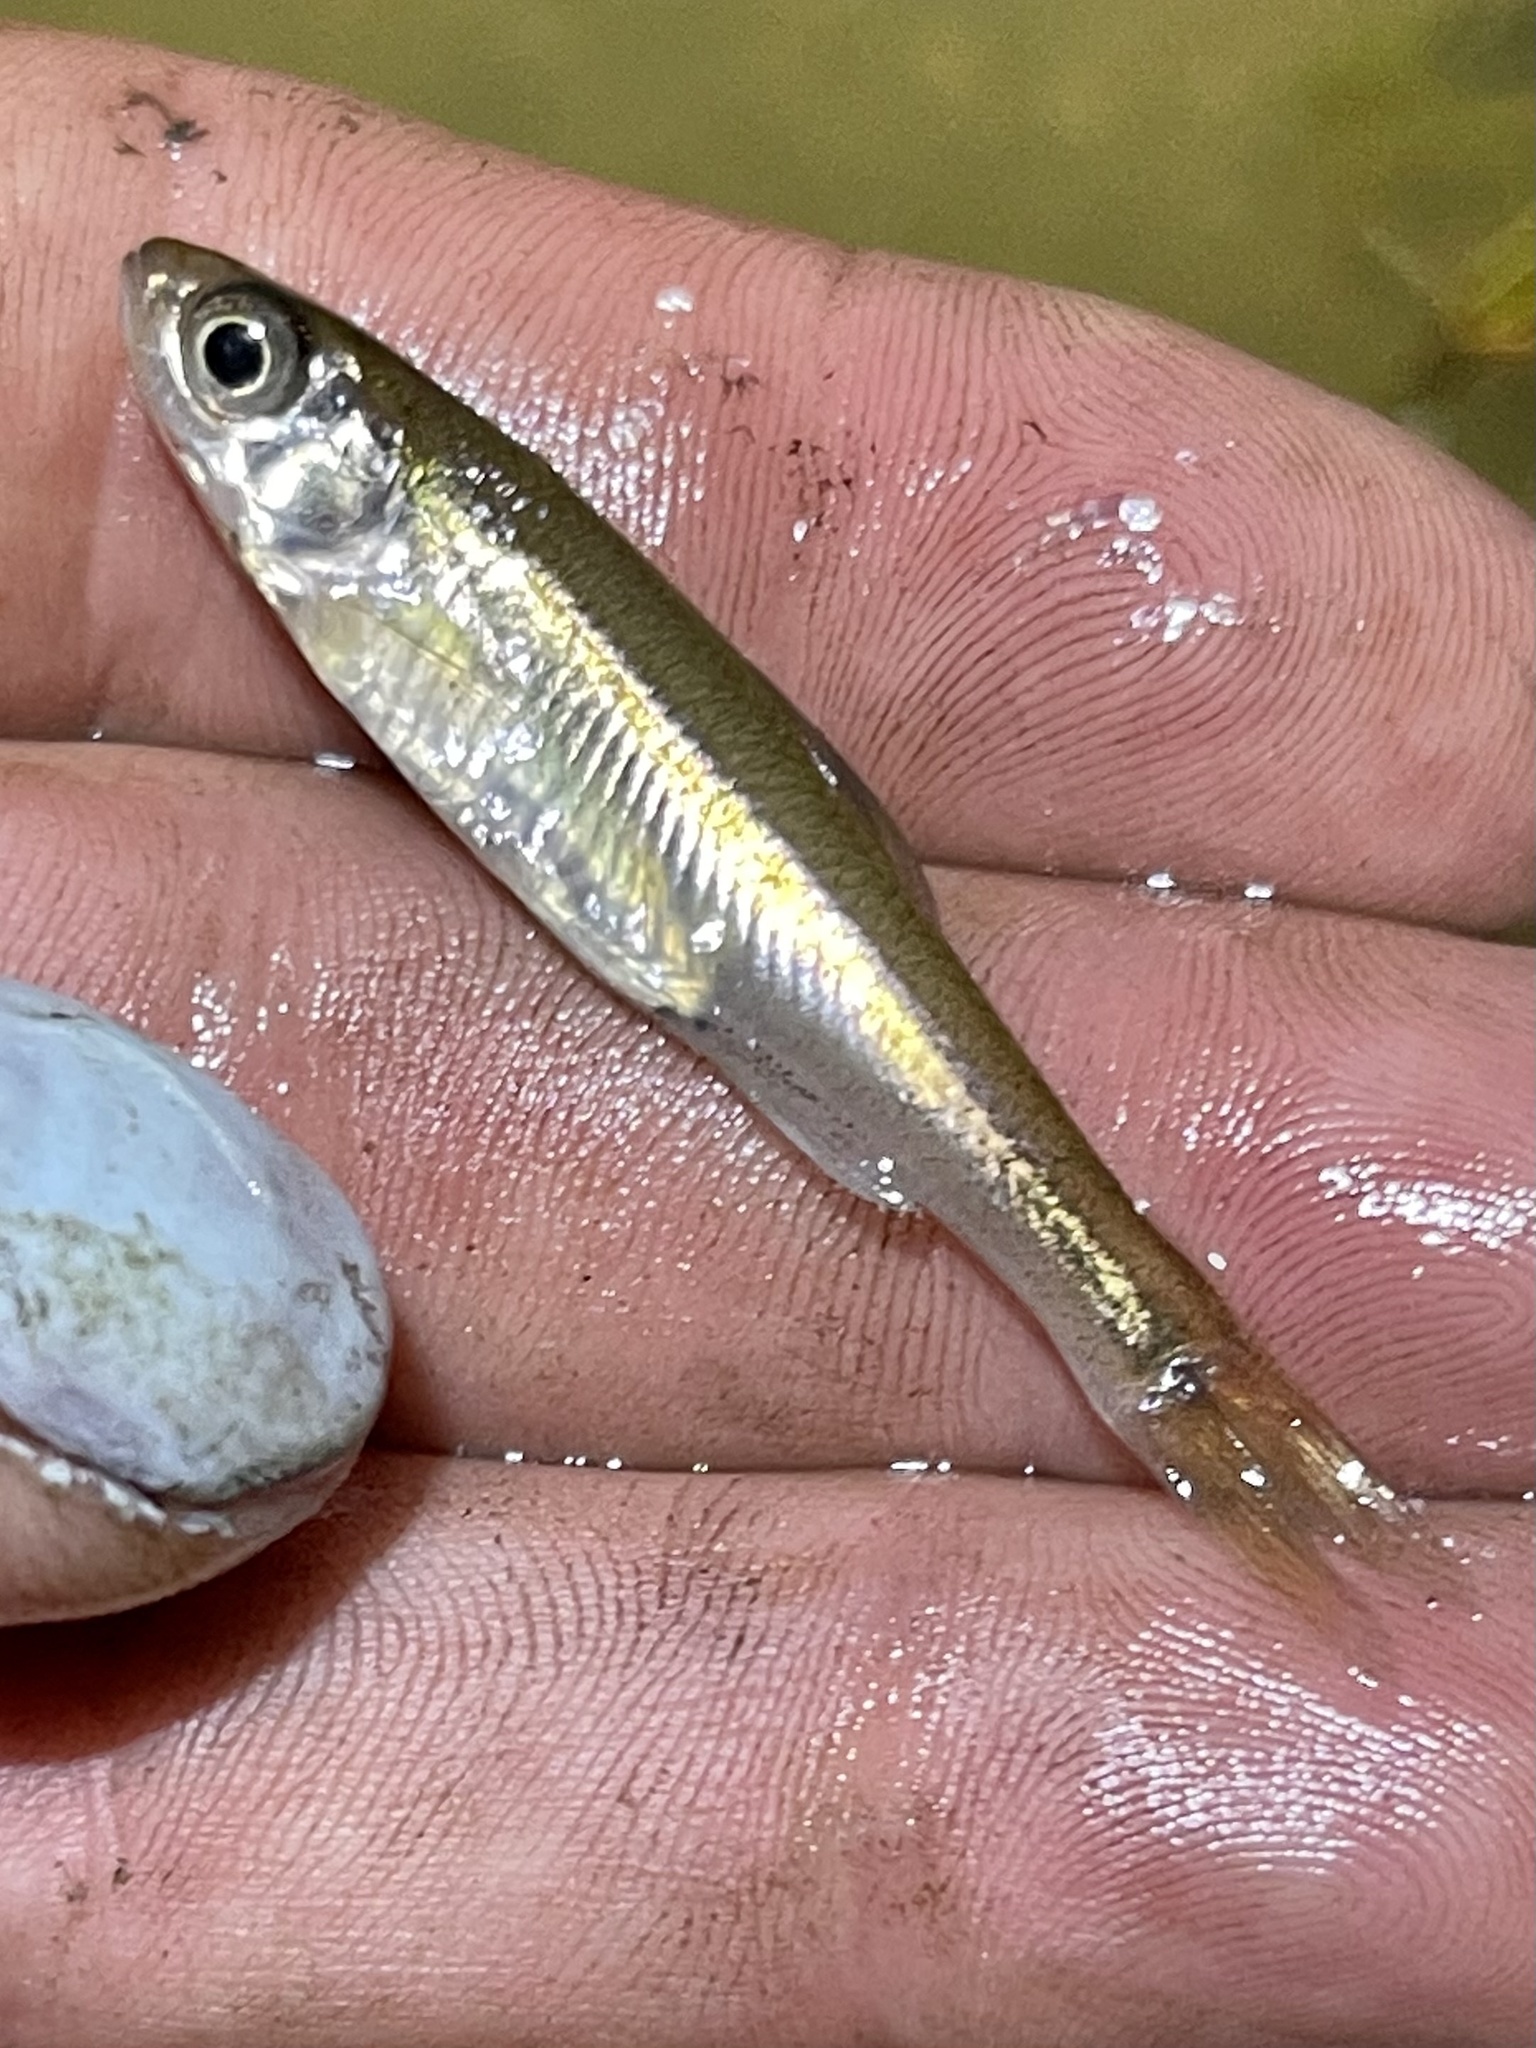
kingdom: Animalia
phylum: Chordata
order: Cypriniformes
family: Cyprinidae
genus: Luxilus
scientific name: Luxilus cornutus
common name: Common shiner
